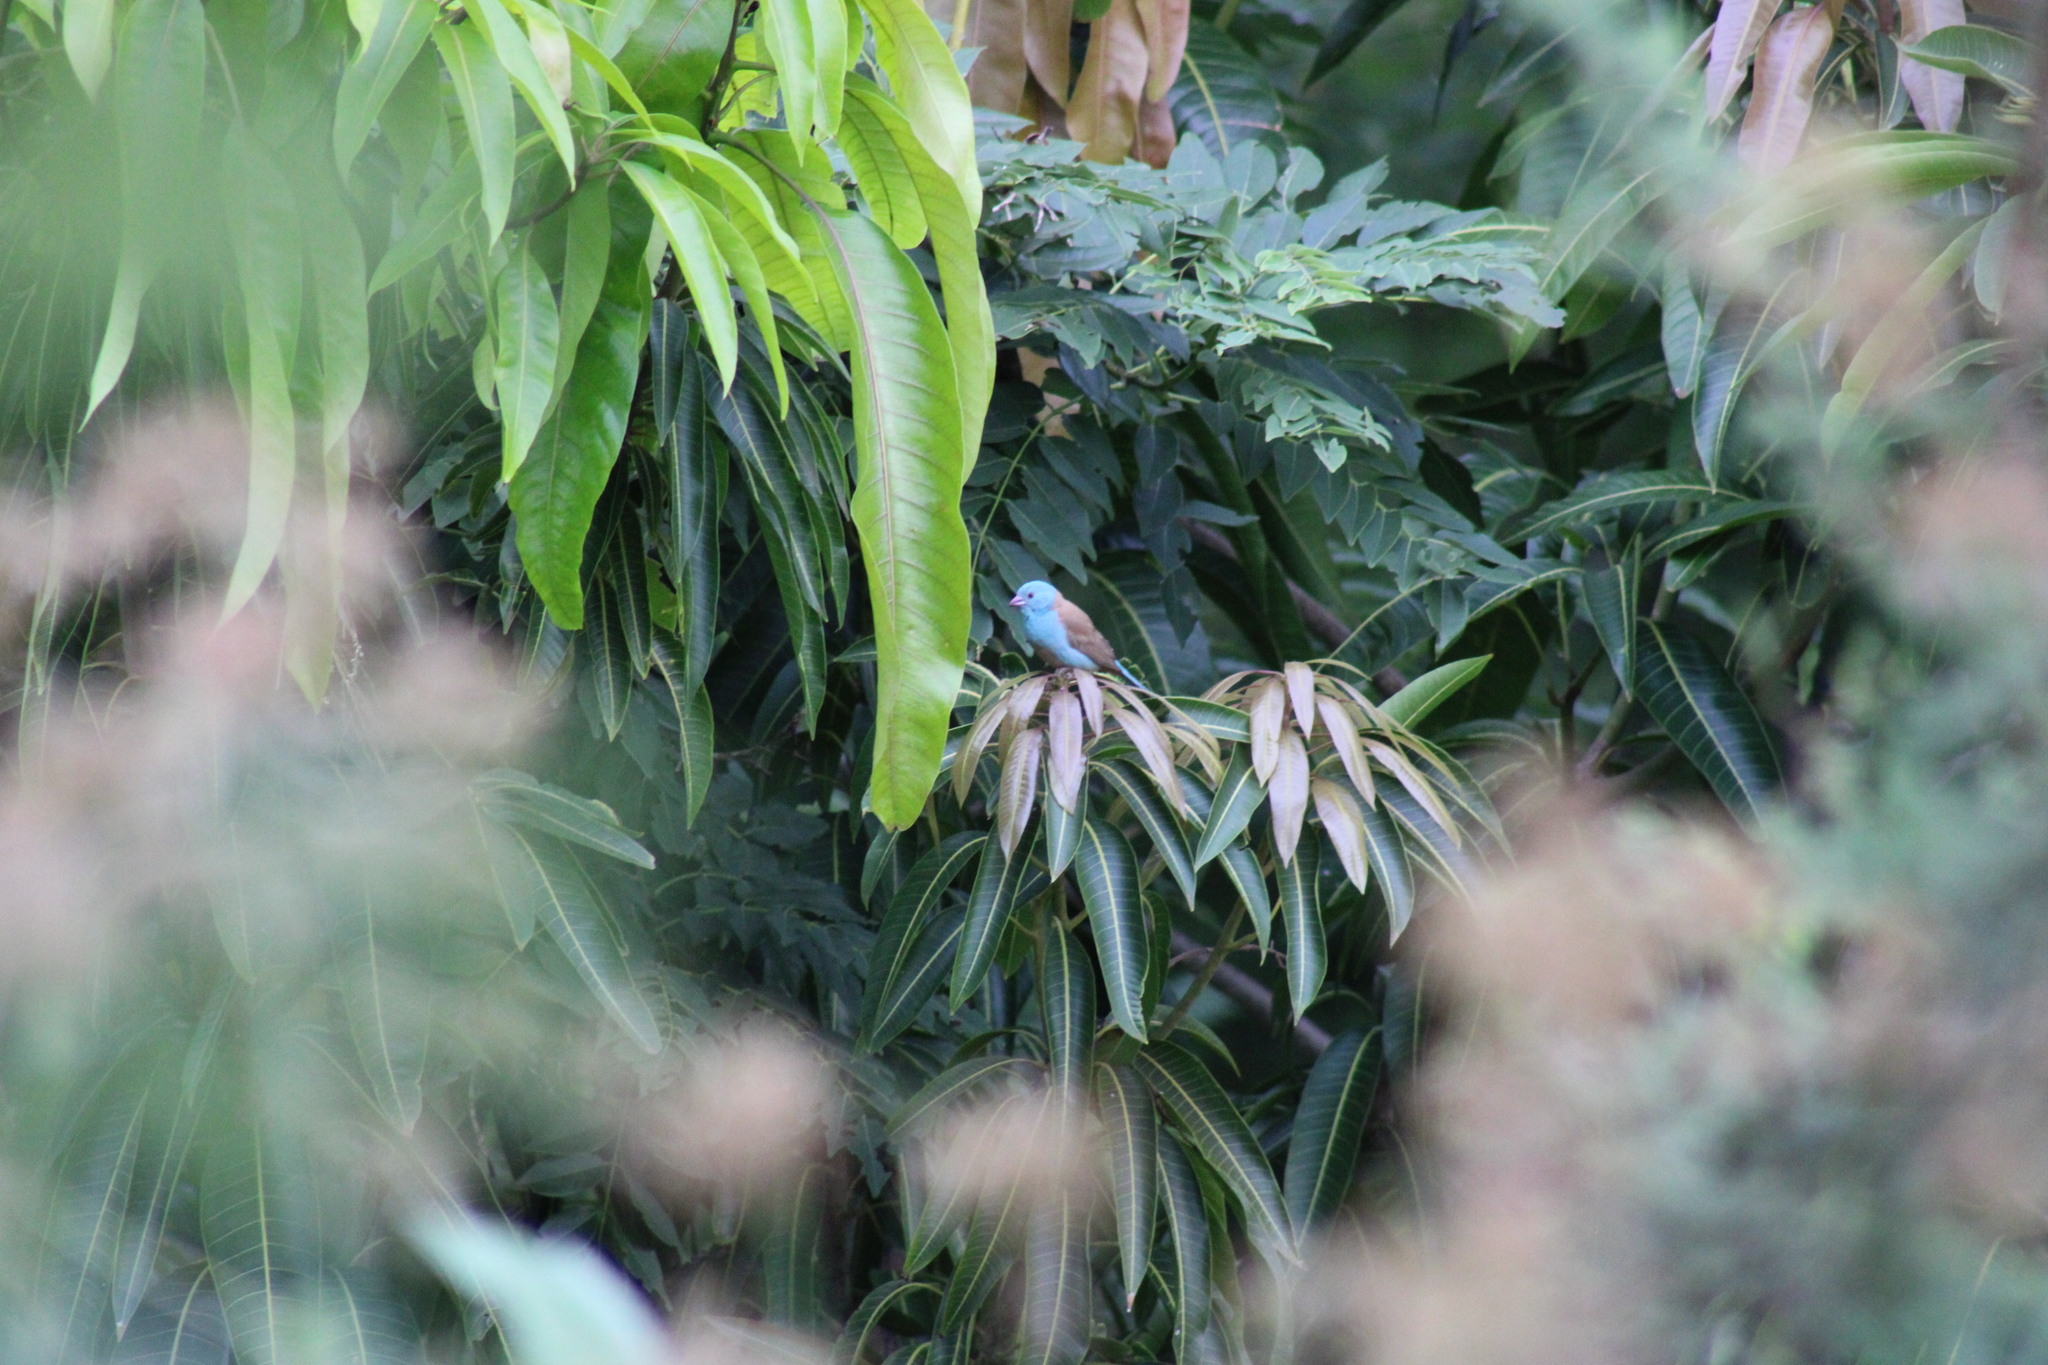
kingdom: Animalia
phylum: Chordata
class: Aves
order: Passeriformes
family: Estrildidae
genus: Uraeginthus
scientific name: Uraeginthus cyanocephalus
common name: Blue-capped cordon-bleu
